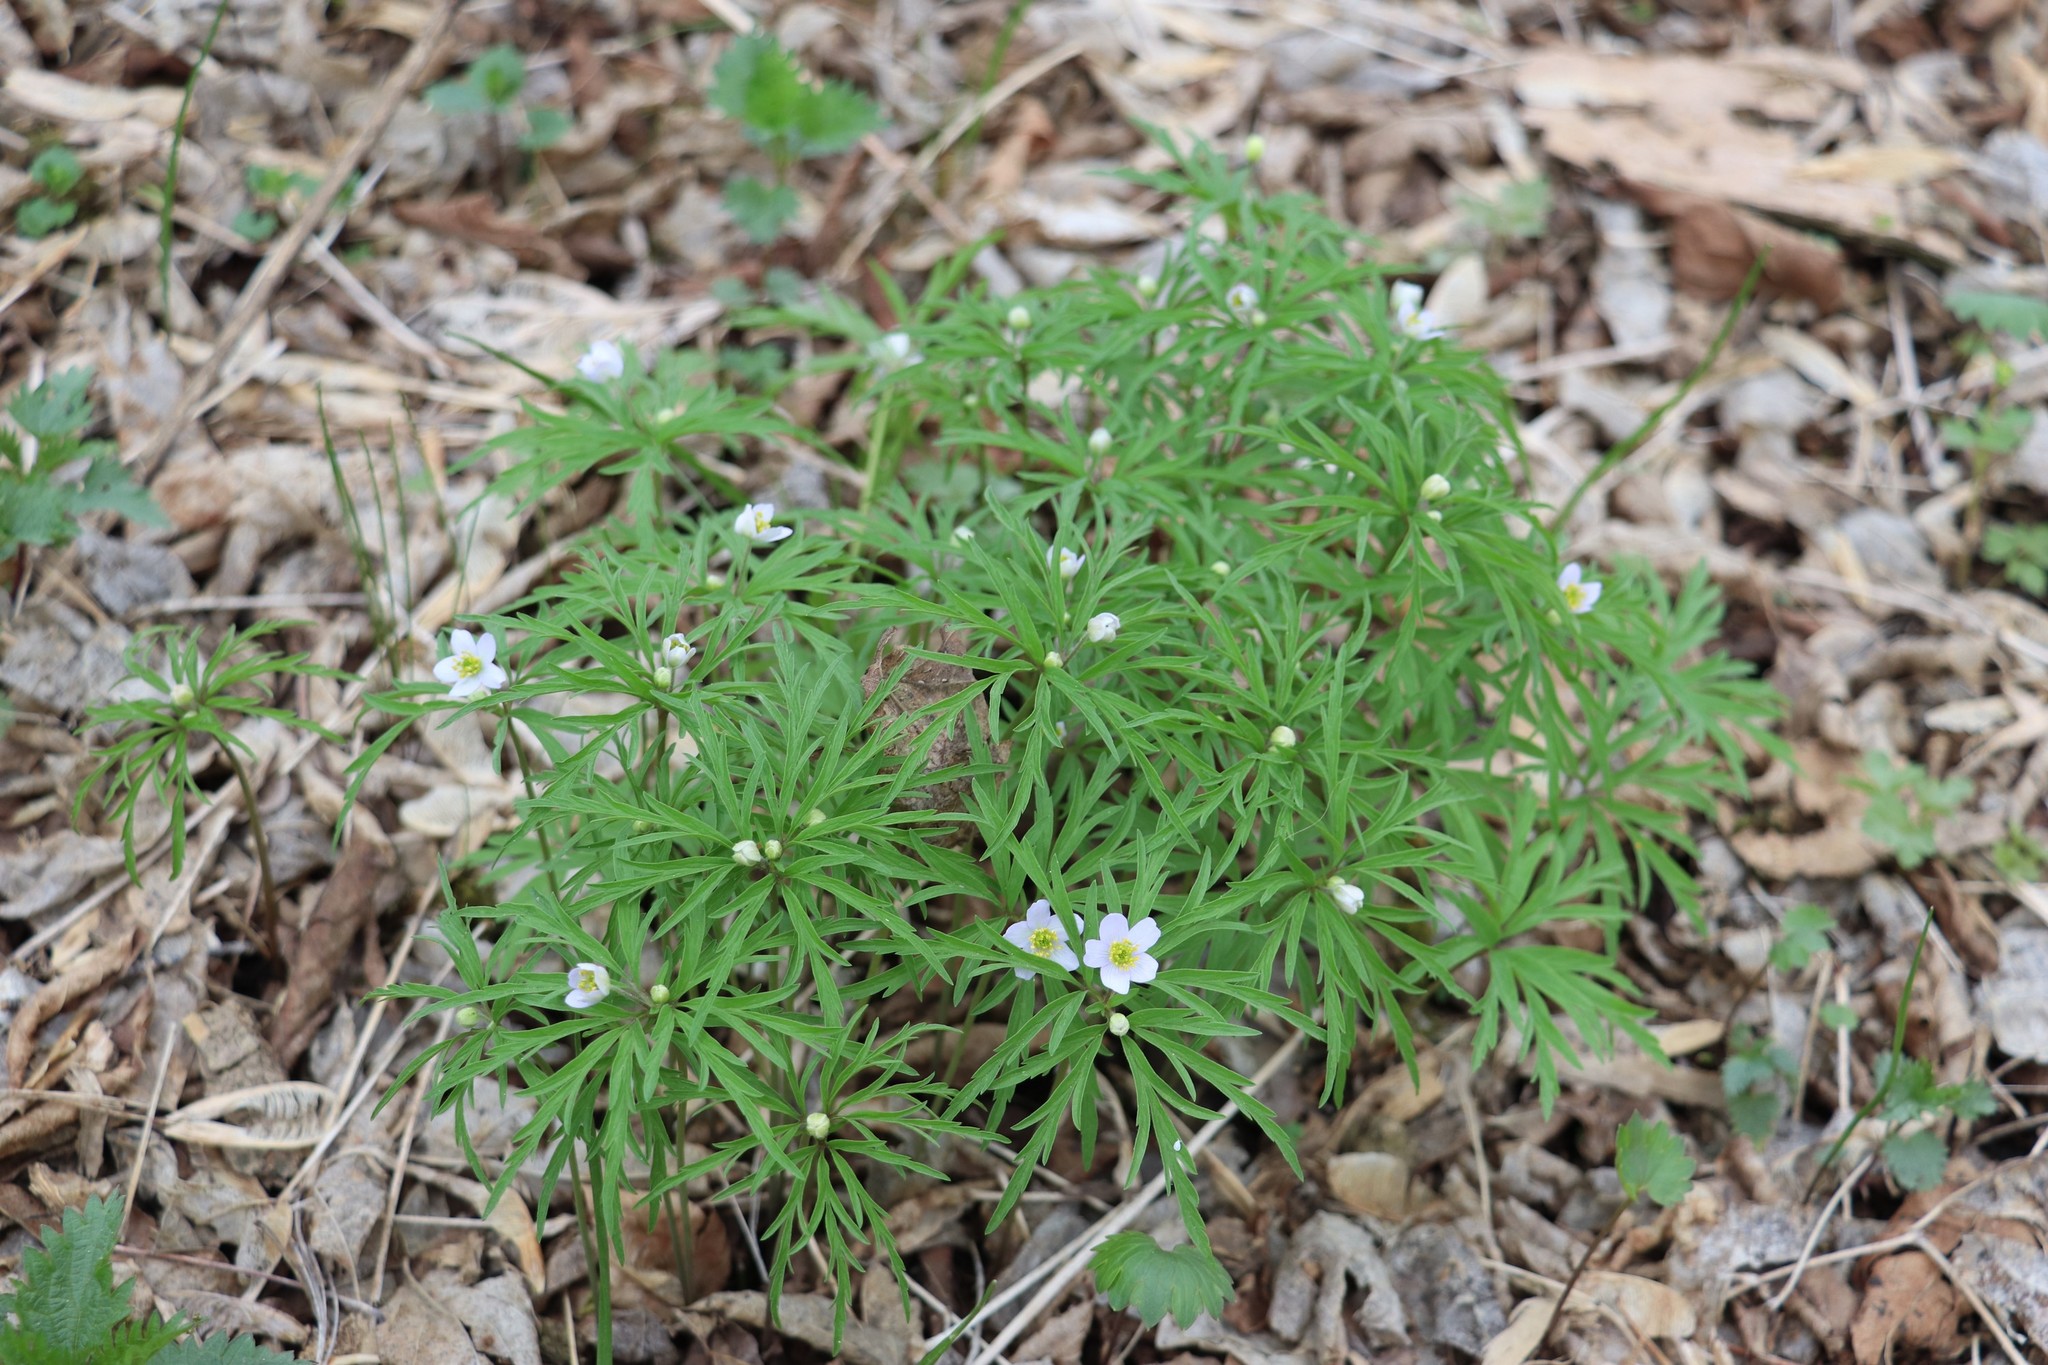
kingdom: Plantae
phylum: Tracheophyta
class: Magnoliopsida
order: Ranunculales
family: Ranunculaceae
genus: Anemone
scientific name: Anemone caerulea
